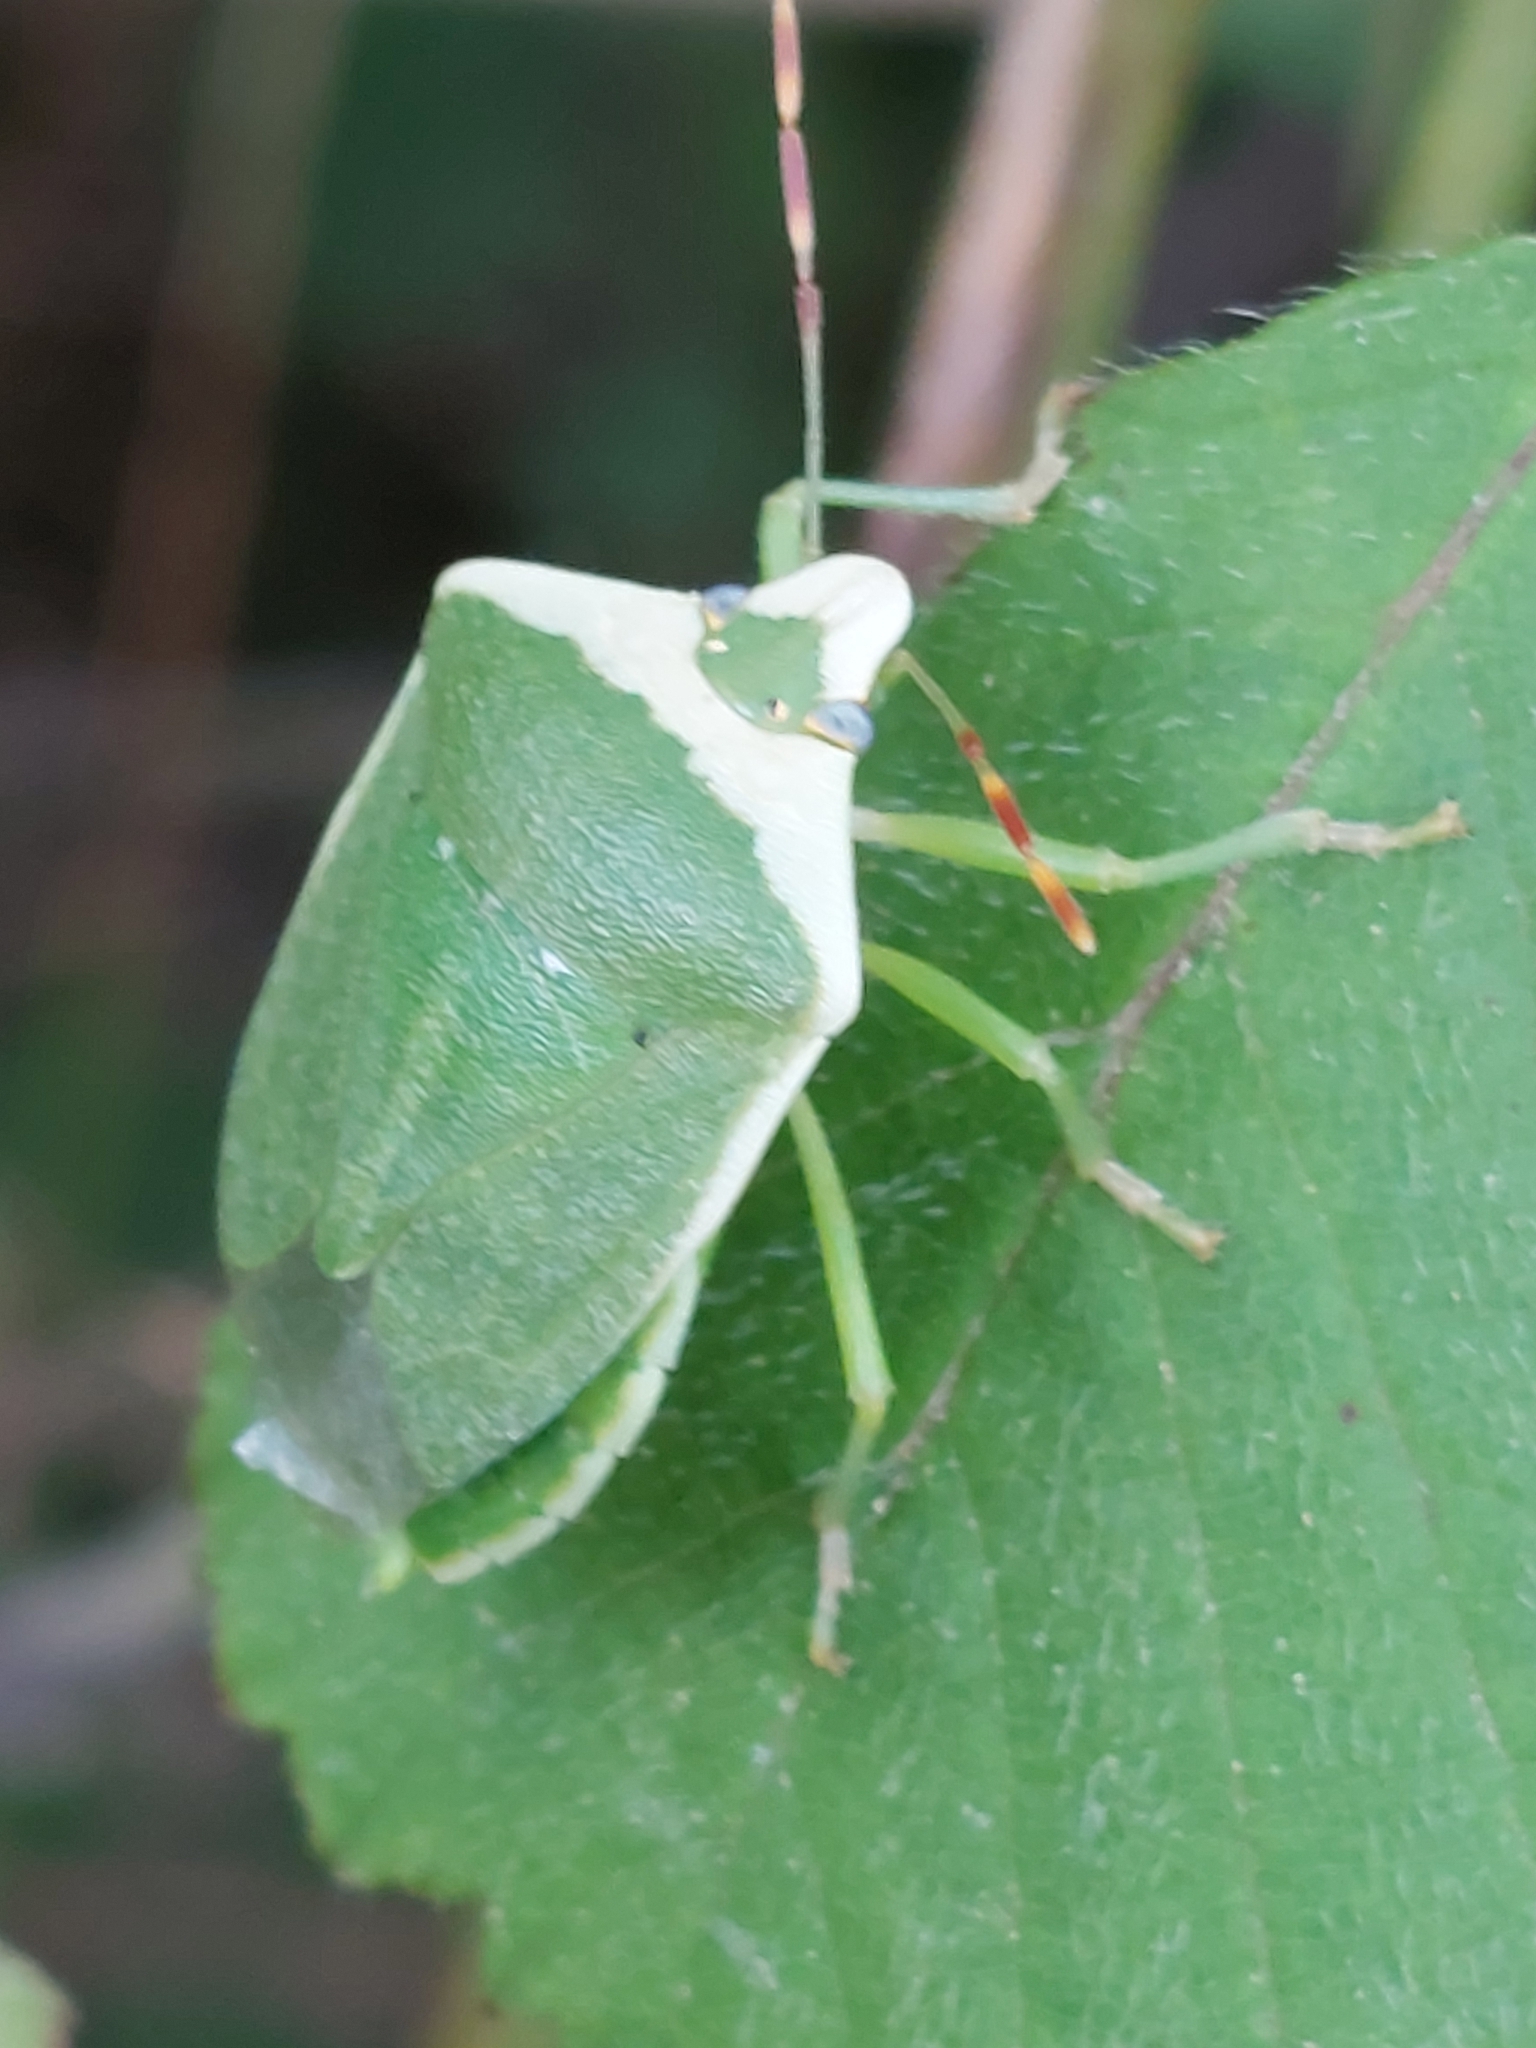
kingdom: Animalia
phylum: Arthropoda
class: Insecta
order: Hemiptera
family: Pentatomidae
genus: Nezara
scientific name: Nezara viridula
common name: Southern green stink bug
